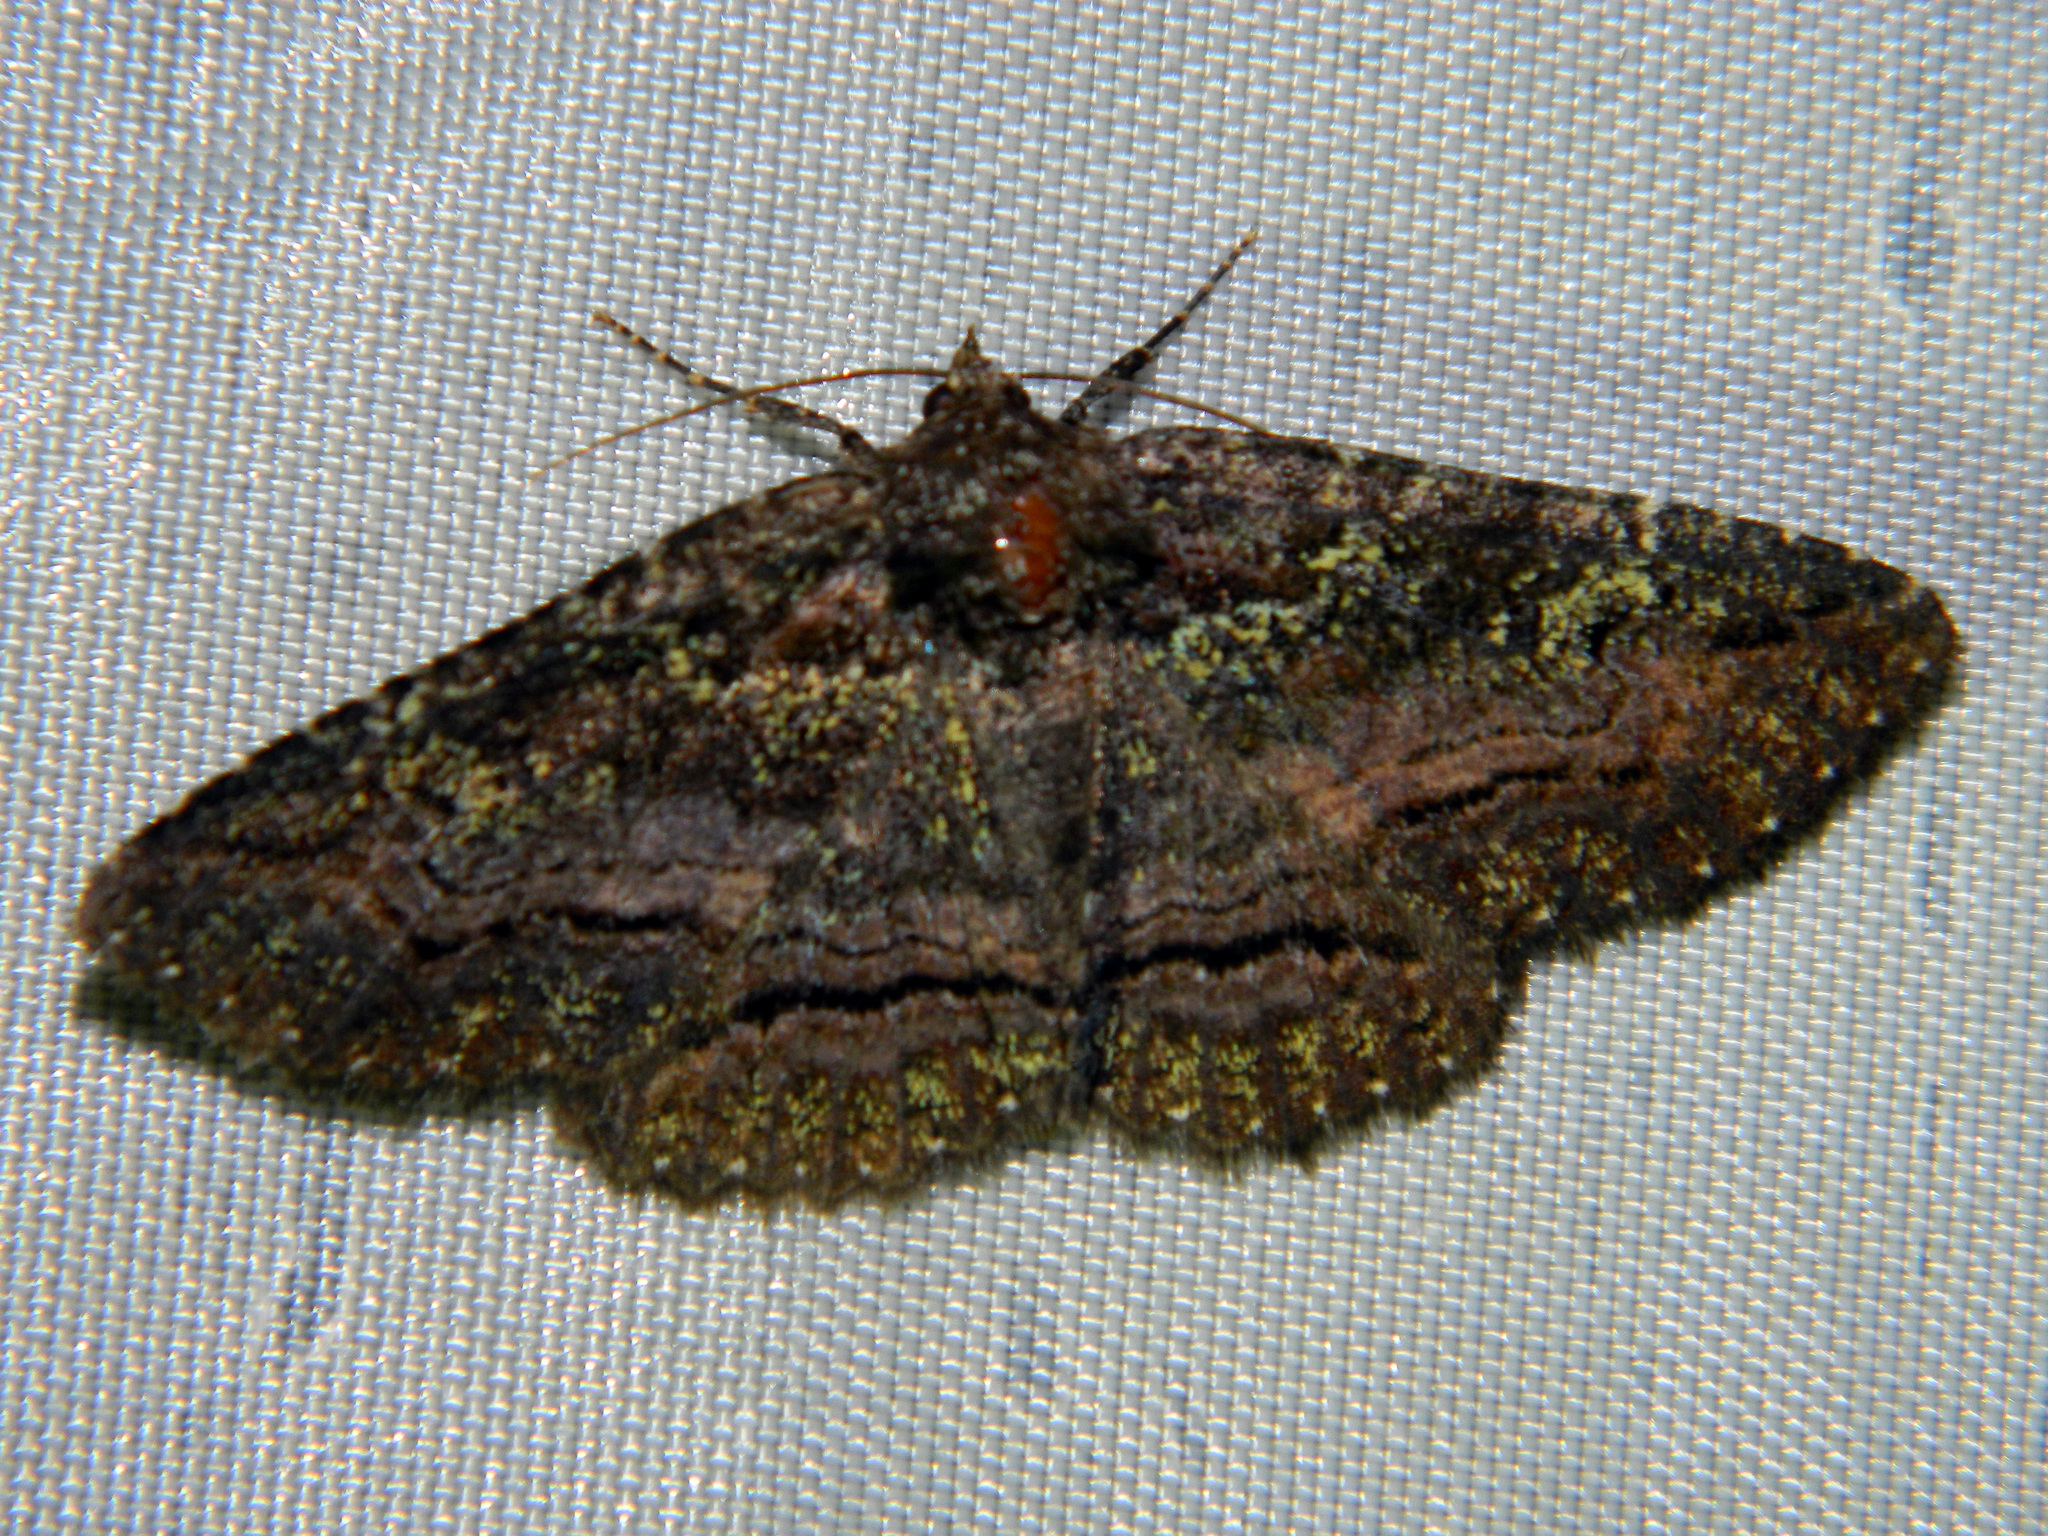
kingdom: Animalia
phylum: Arthropoda
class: Insecta
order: Lepidoptera
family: Erebidae
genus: Zale
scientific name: Zale aeruginosa
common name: Green-dusted zale moth
